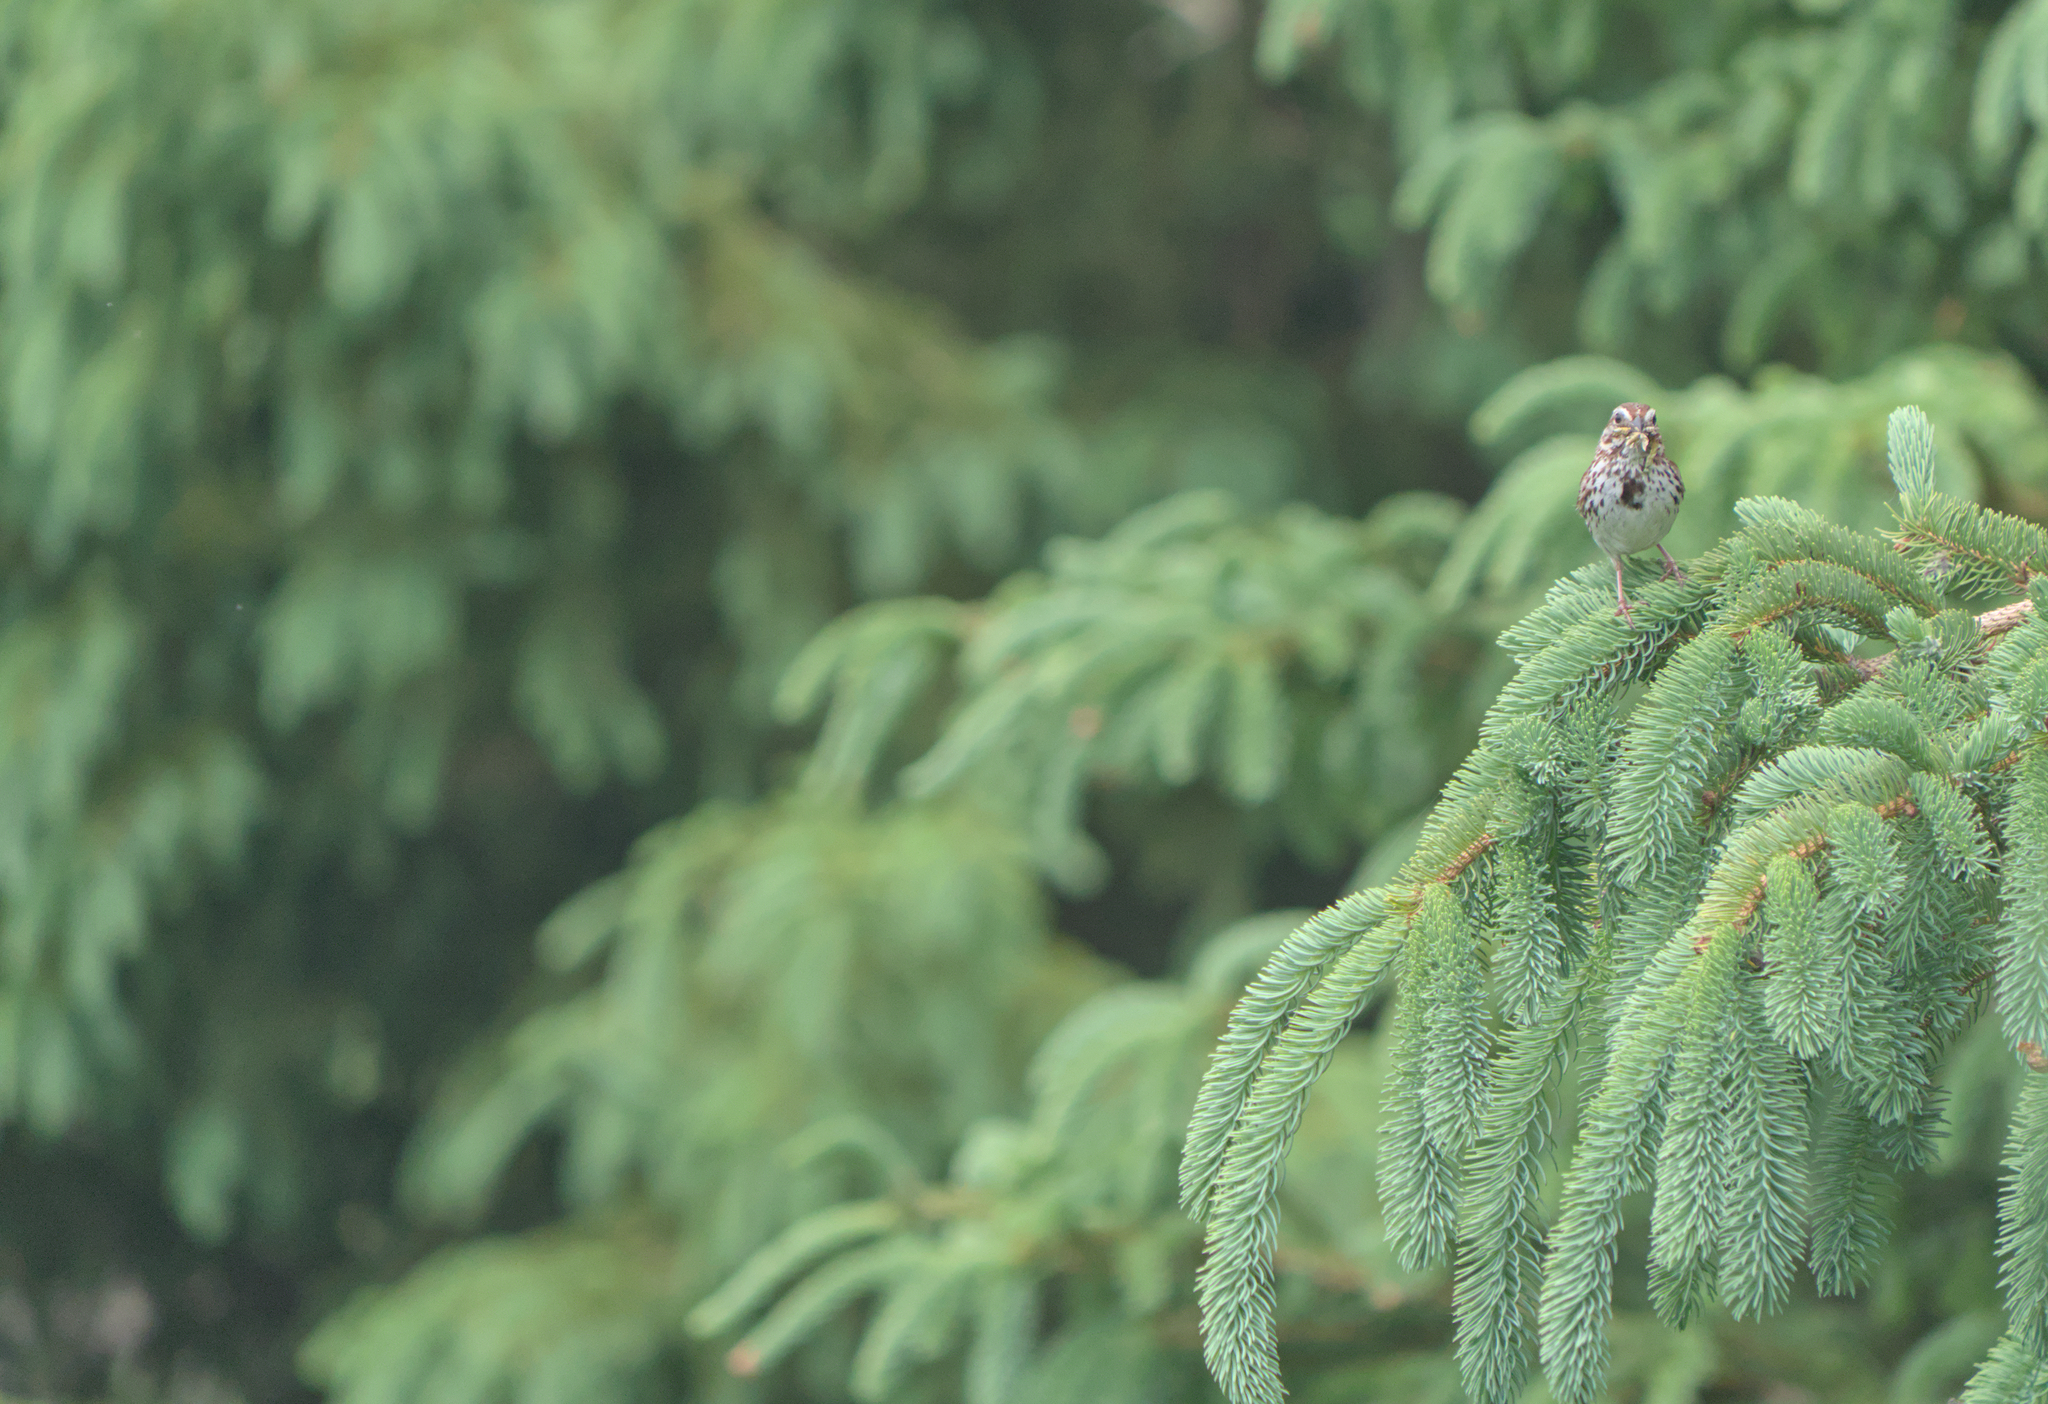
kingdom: Animalia
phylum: Chordata
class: Aves
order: Passeriformes
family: Passerellidae
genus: Melospiza
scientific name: Melospiza melodia
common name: Song sparrow
